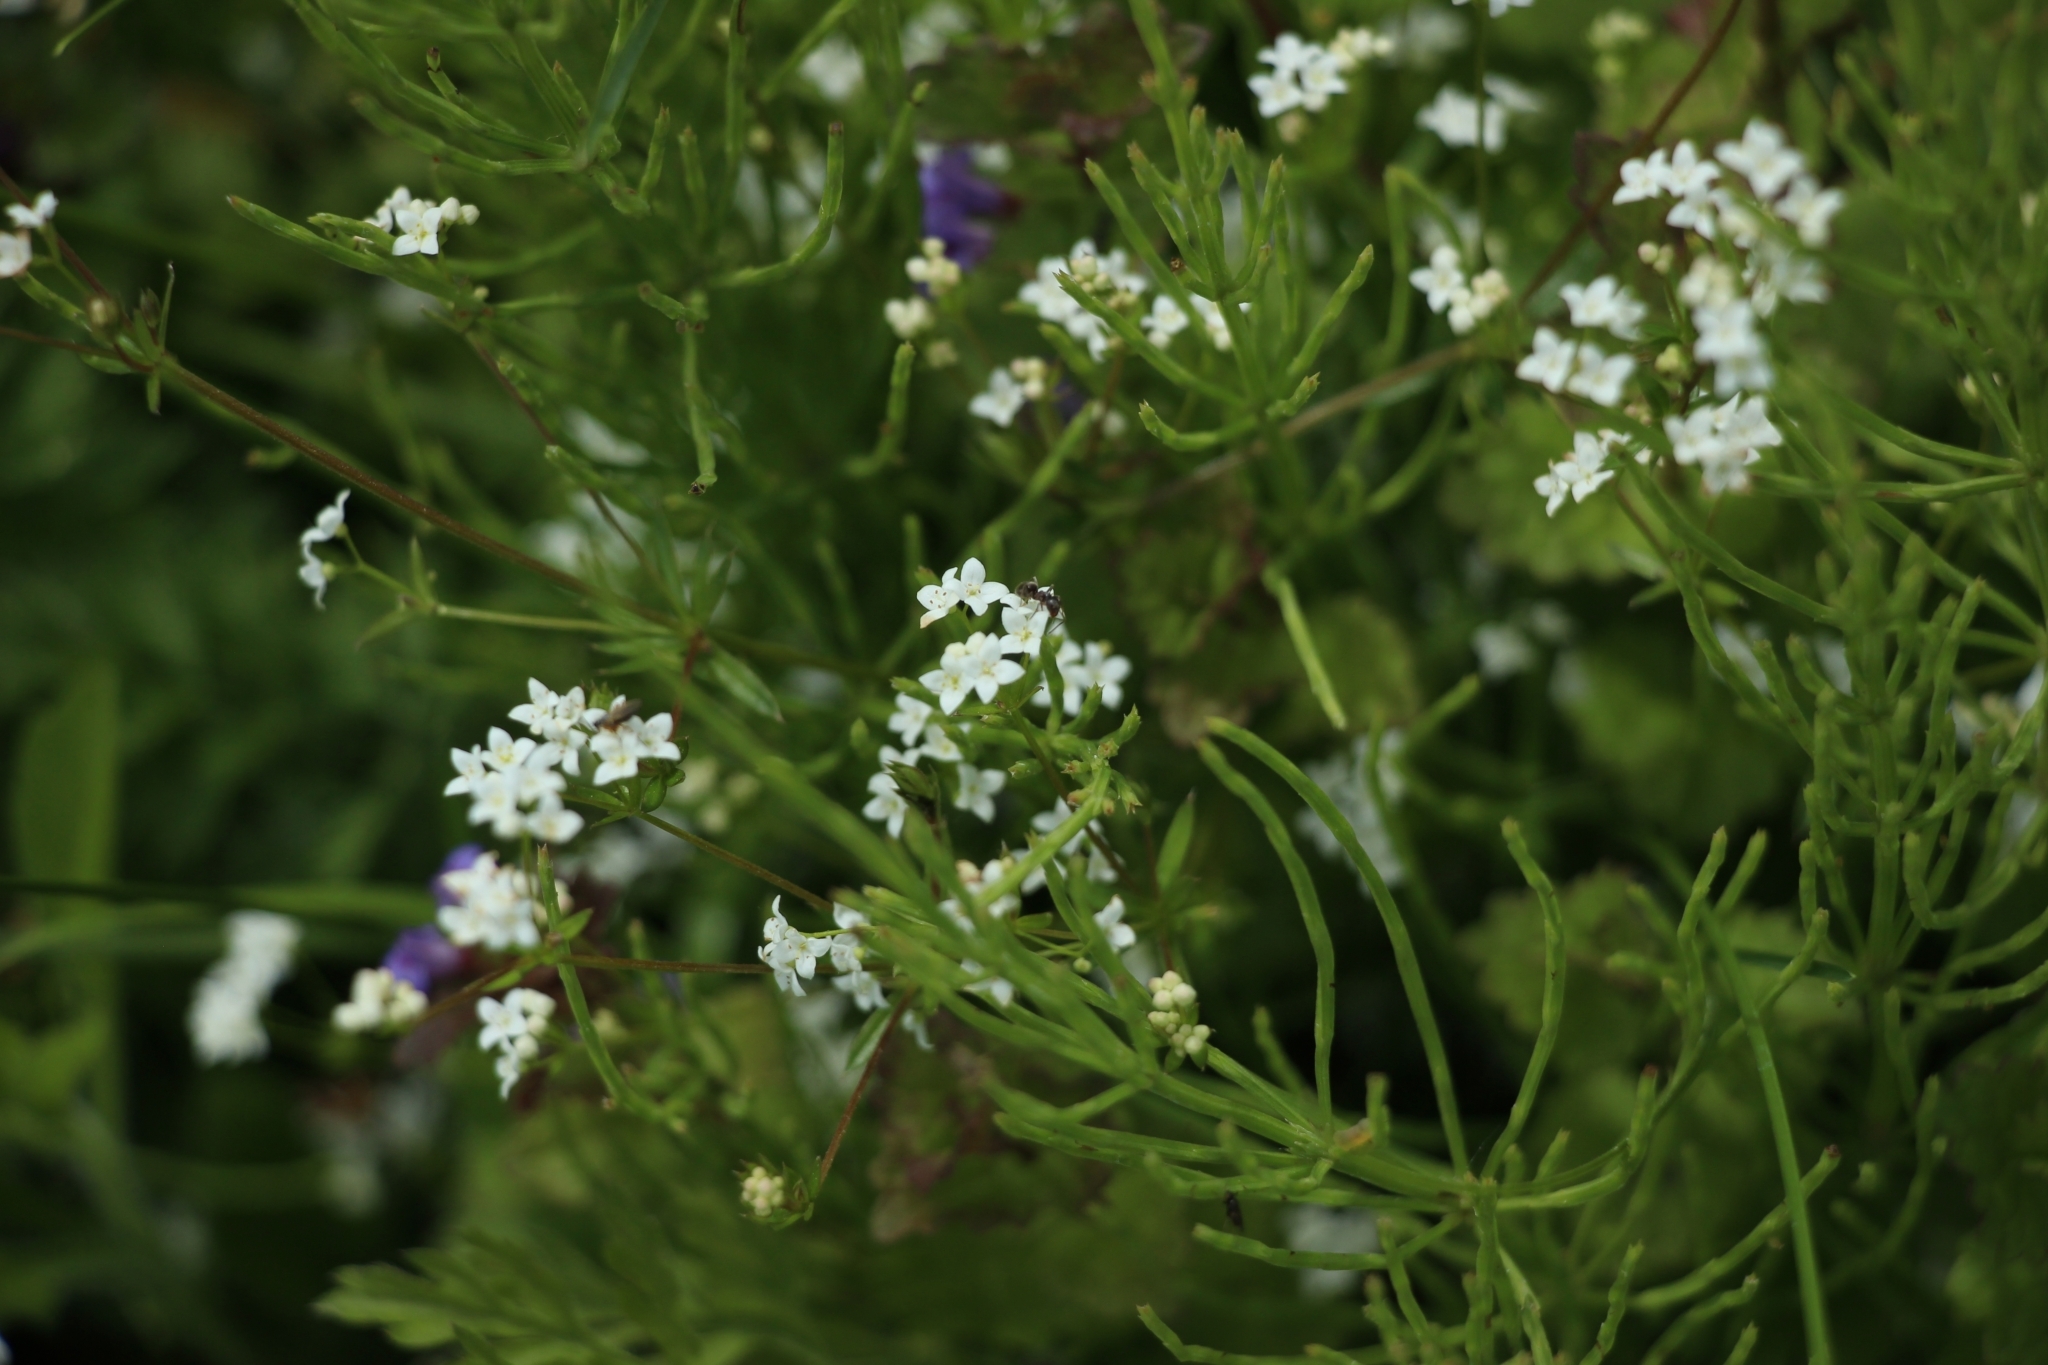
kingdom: Plantae
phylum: Tracheophyta
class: Magnoliopsida
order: Gentianales
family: Rubiaceae
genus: Galium
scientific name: Galium uliginosum
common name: Fen bedstraw
